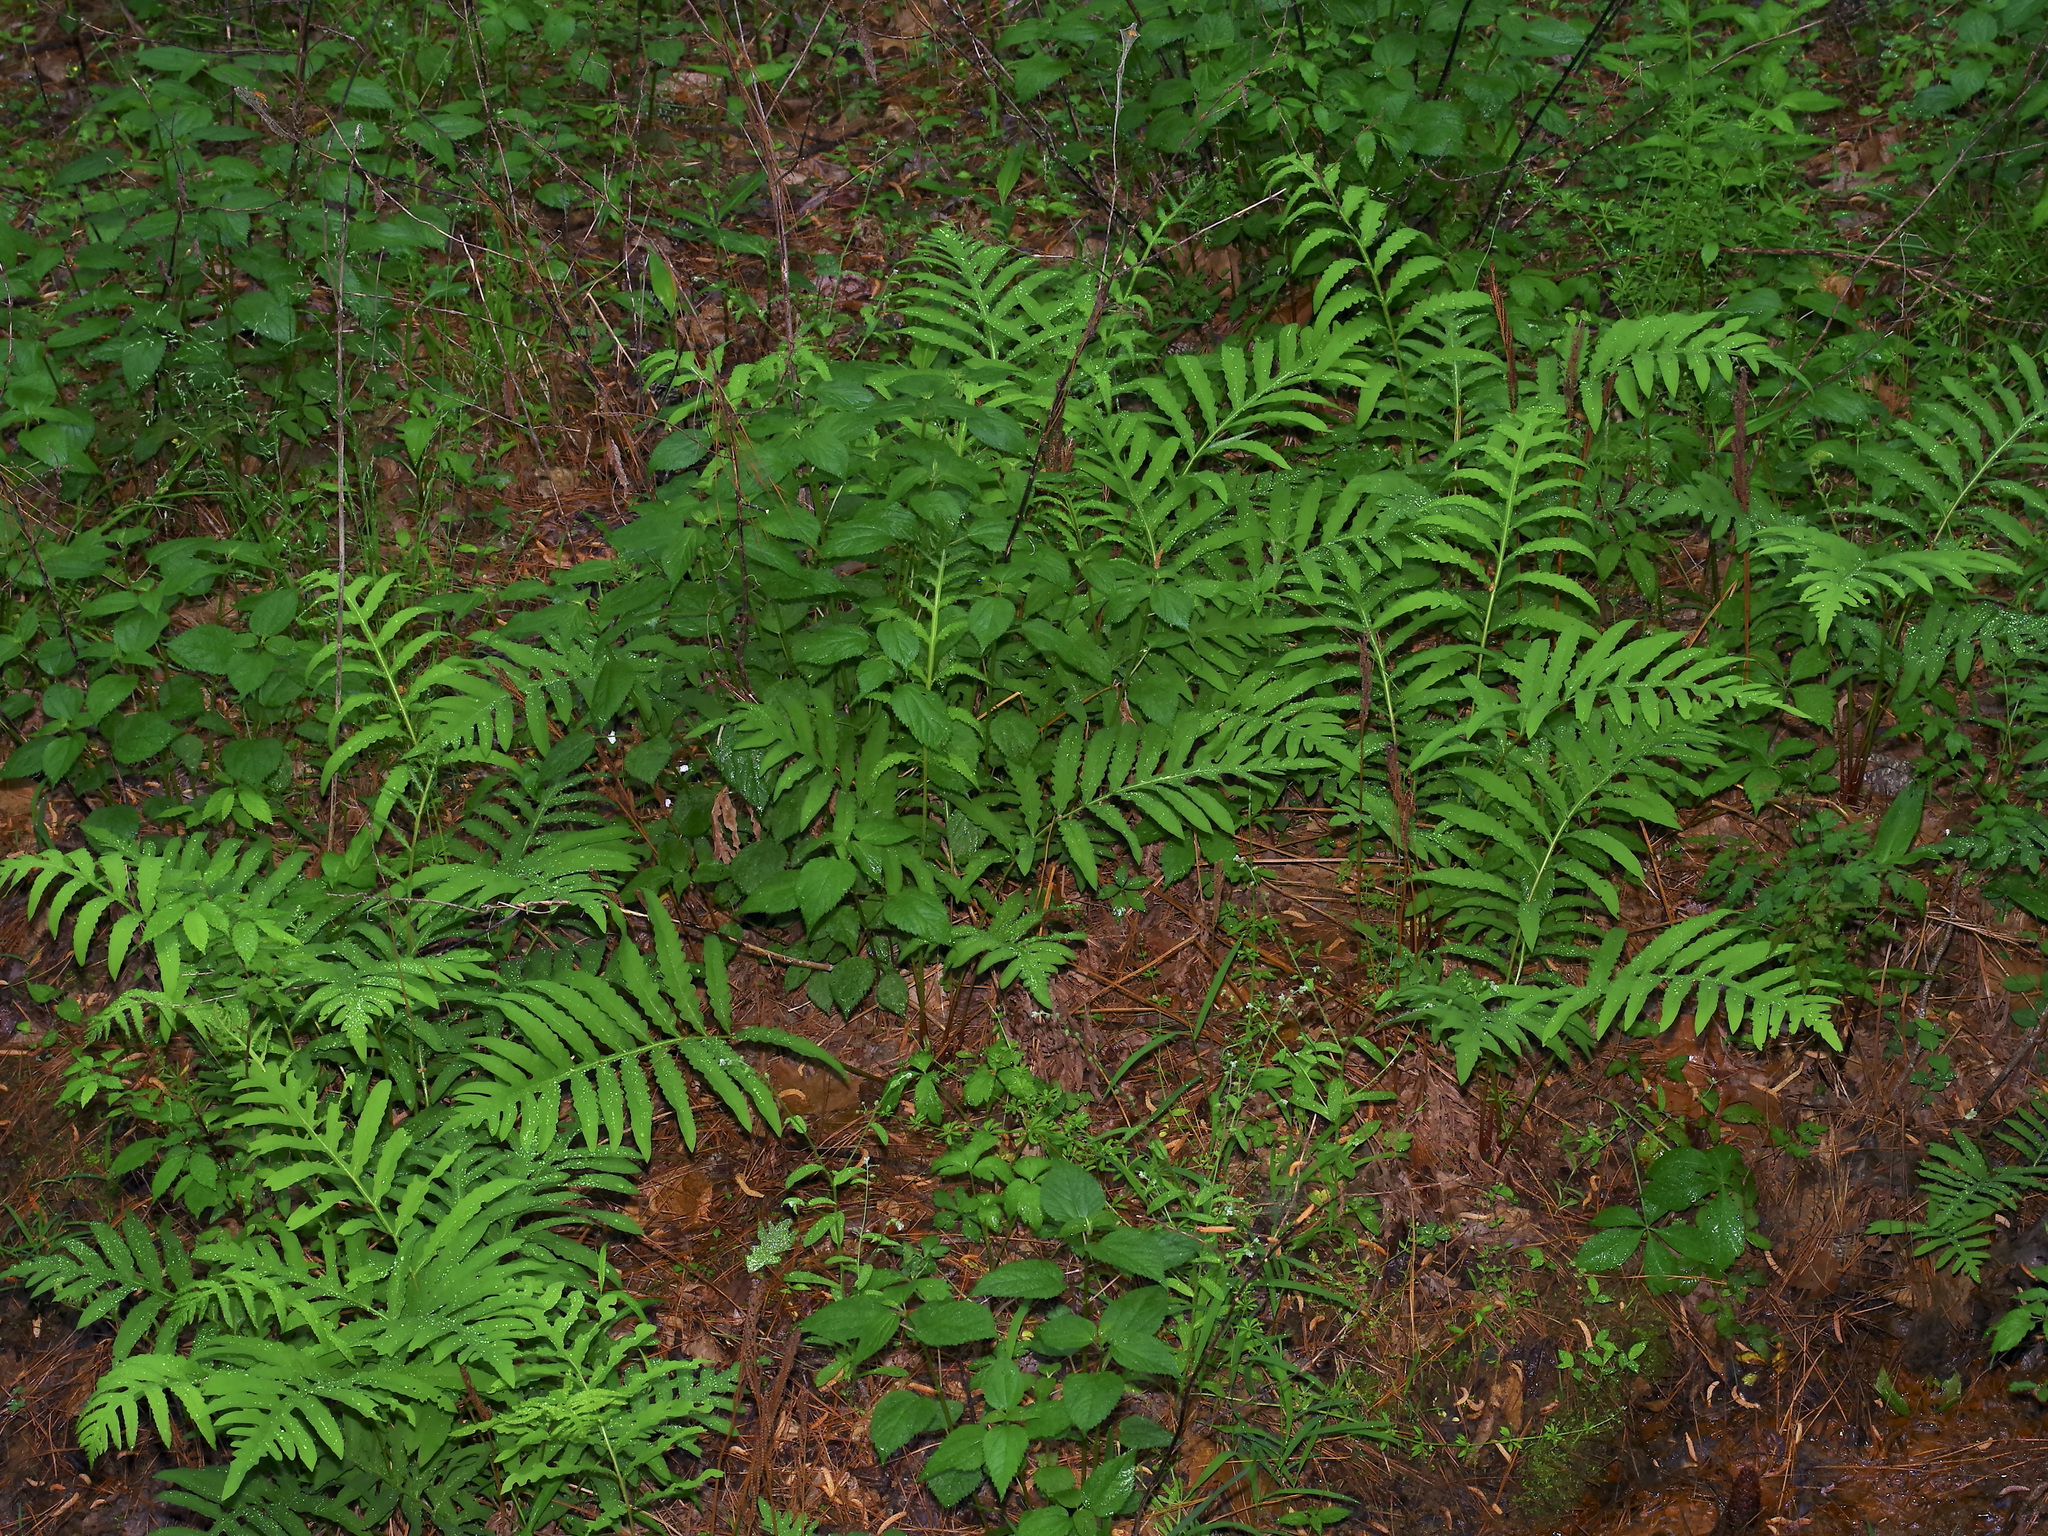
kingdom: Plantae
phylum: Tracheophyta
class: Polypodiopsida
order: Polypodiales
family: Onocleaceae
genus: Onoclea
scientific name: Onoclea sensibilis
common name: Sensitive fern
